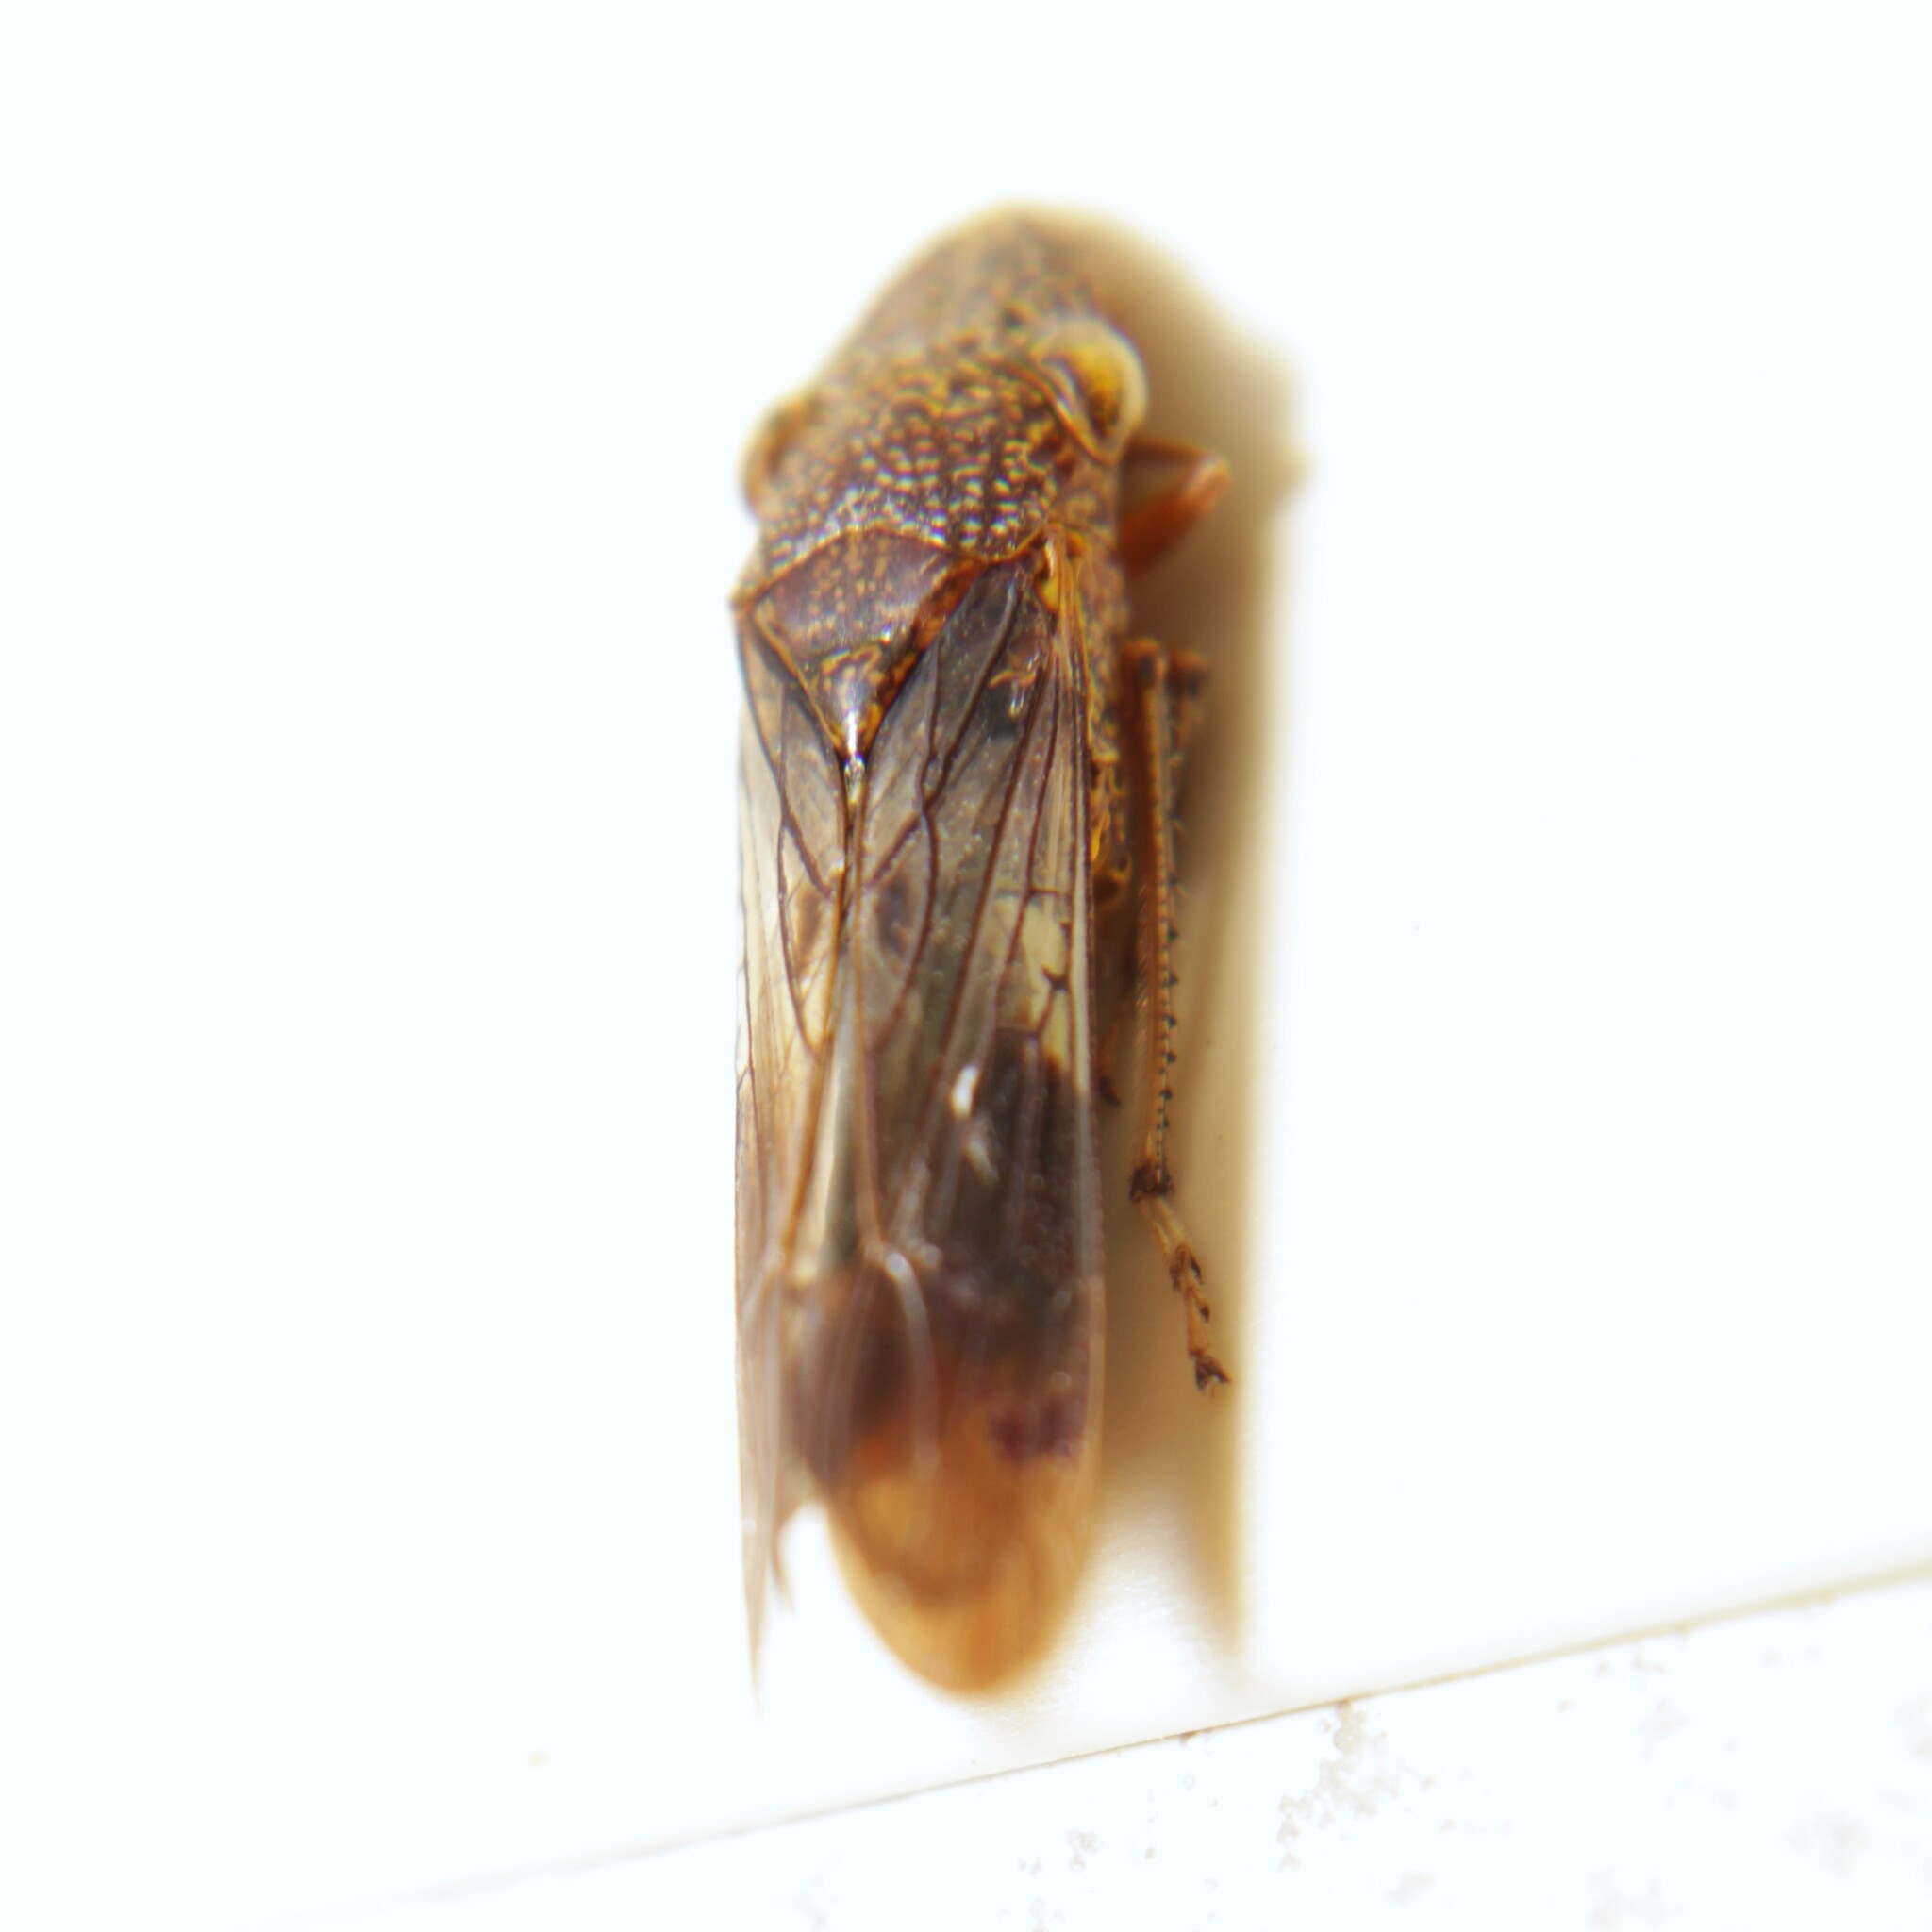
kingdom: Animalia
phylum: Arthropoda
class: Insecta
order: Hemiptera
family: Cicadellidae
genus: Homalodisca
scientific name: Homalodisca vitripennis
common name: Glassy-winged sharpshooter
